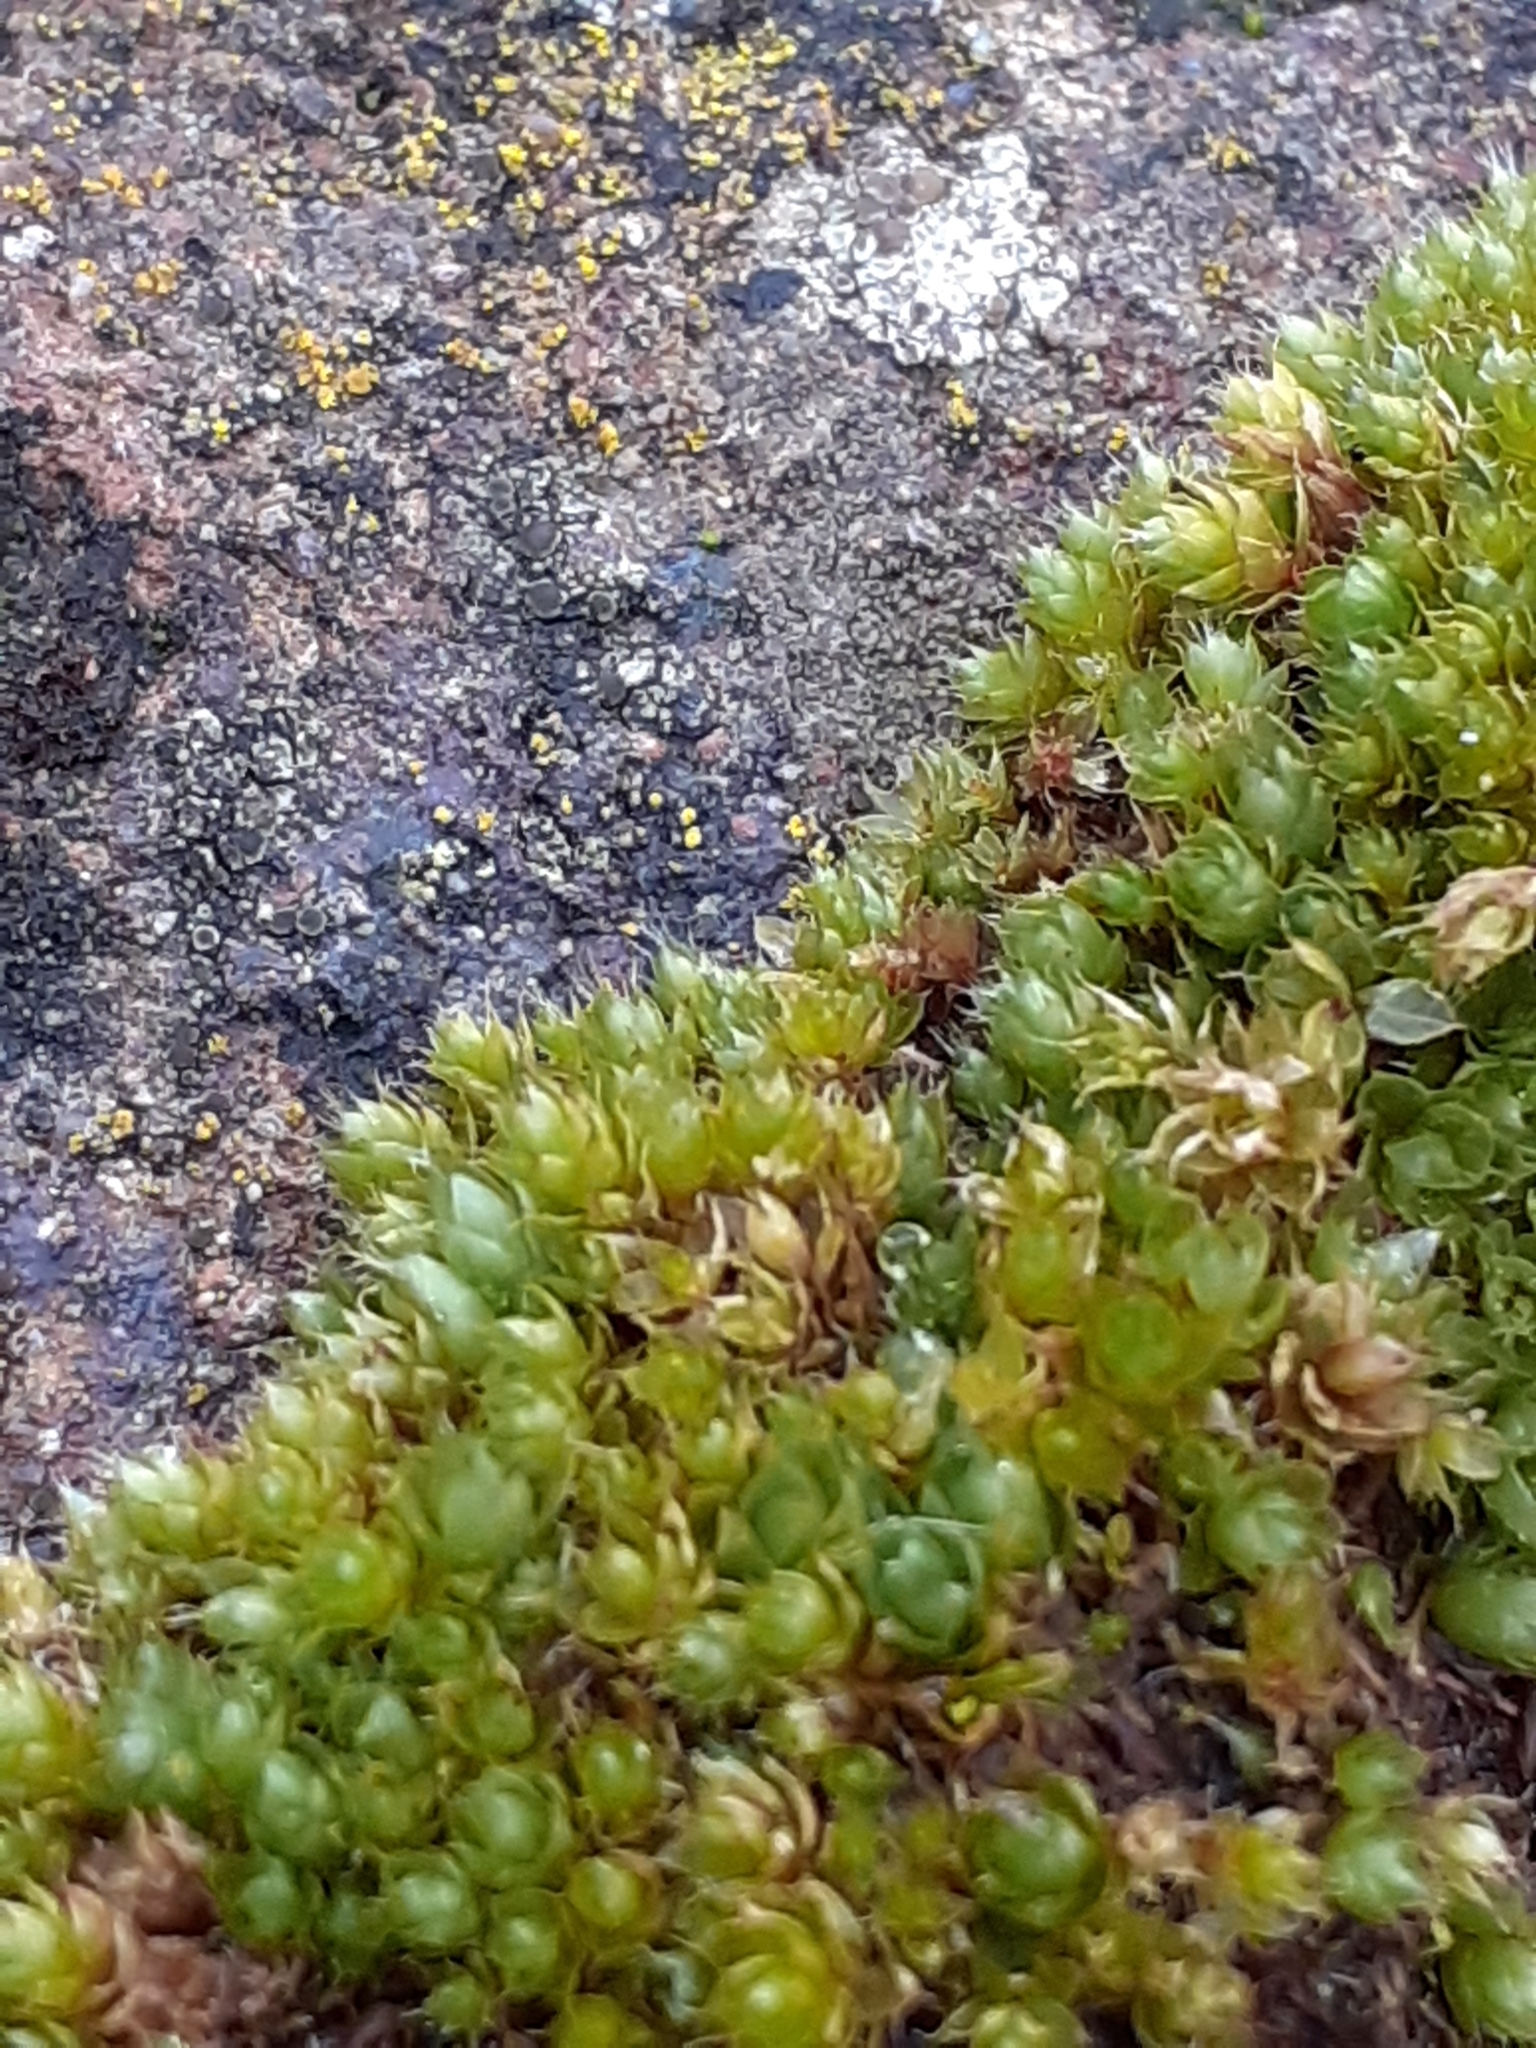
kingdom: Plantae
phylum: Bryophyta
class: Bryopsida
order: Bryales
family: Bryaceae
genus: Rosulabryum
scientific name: Rosulabryum capillare
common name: Capillary thread-moss
